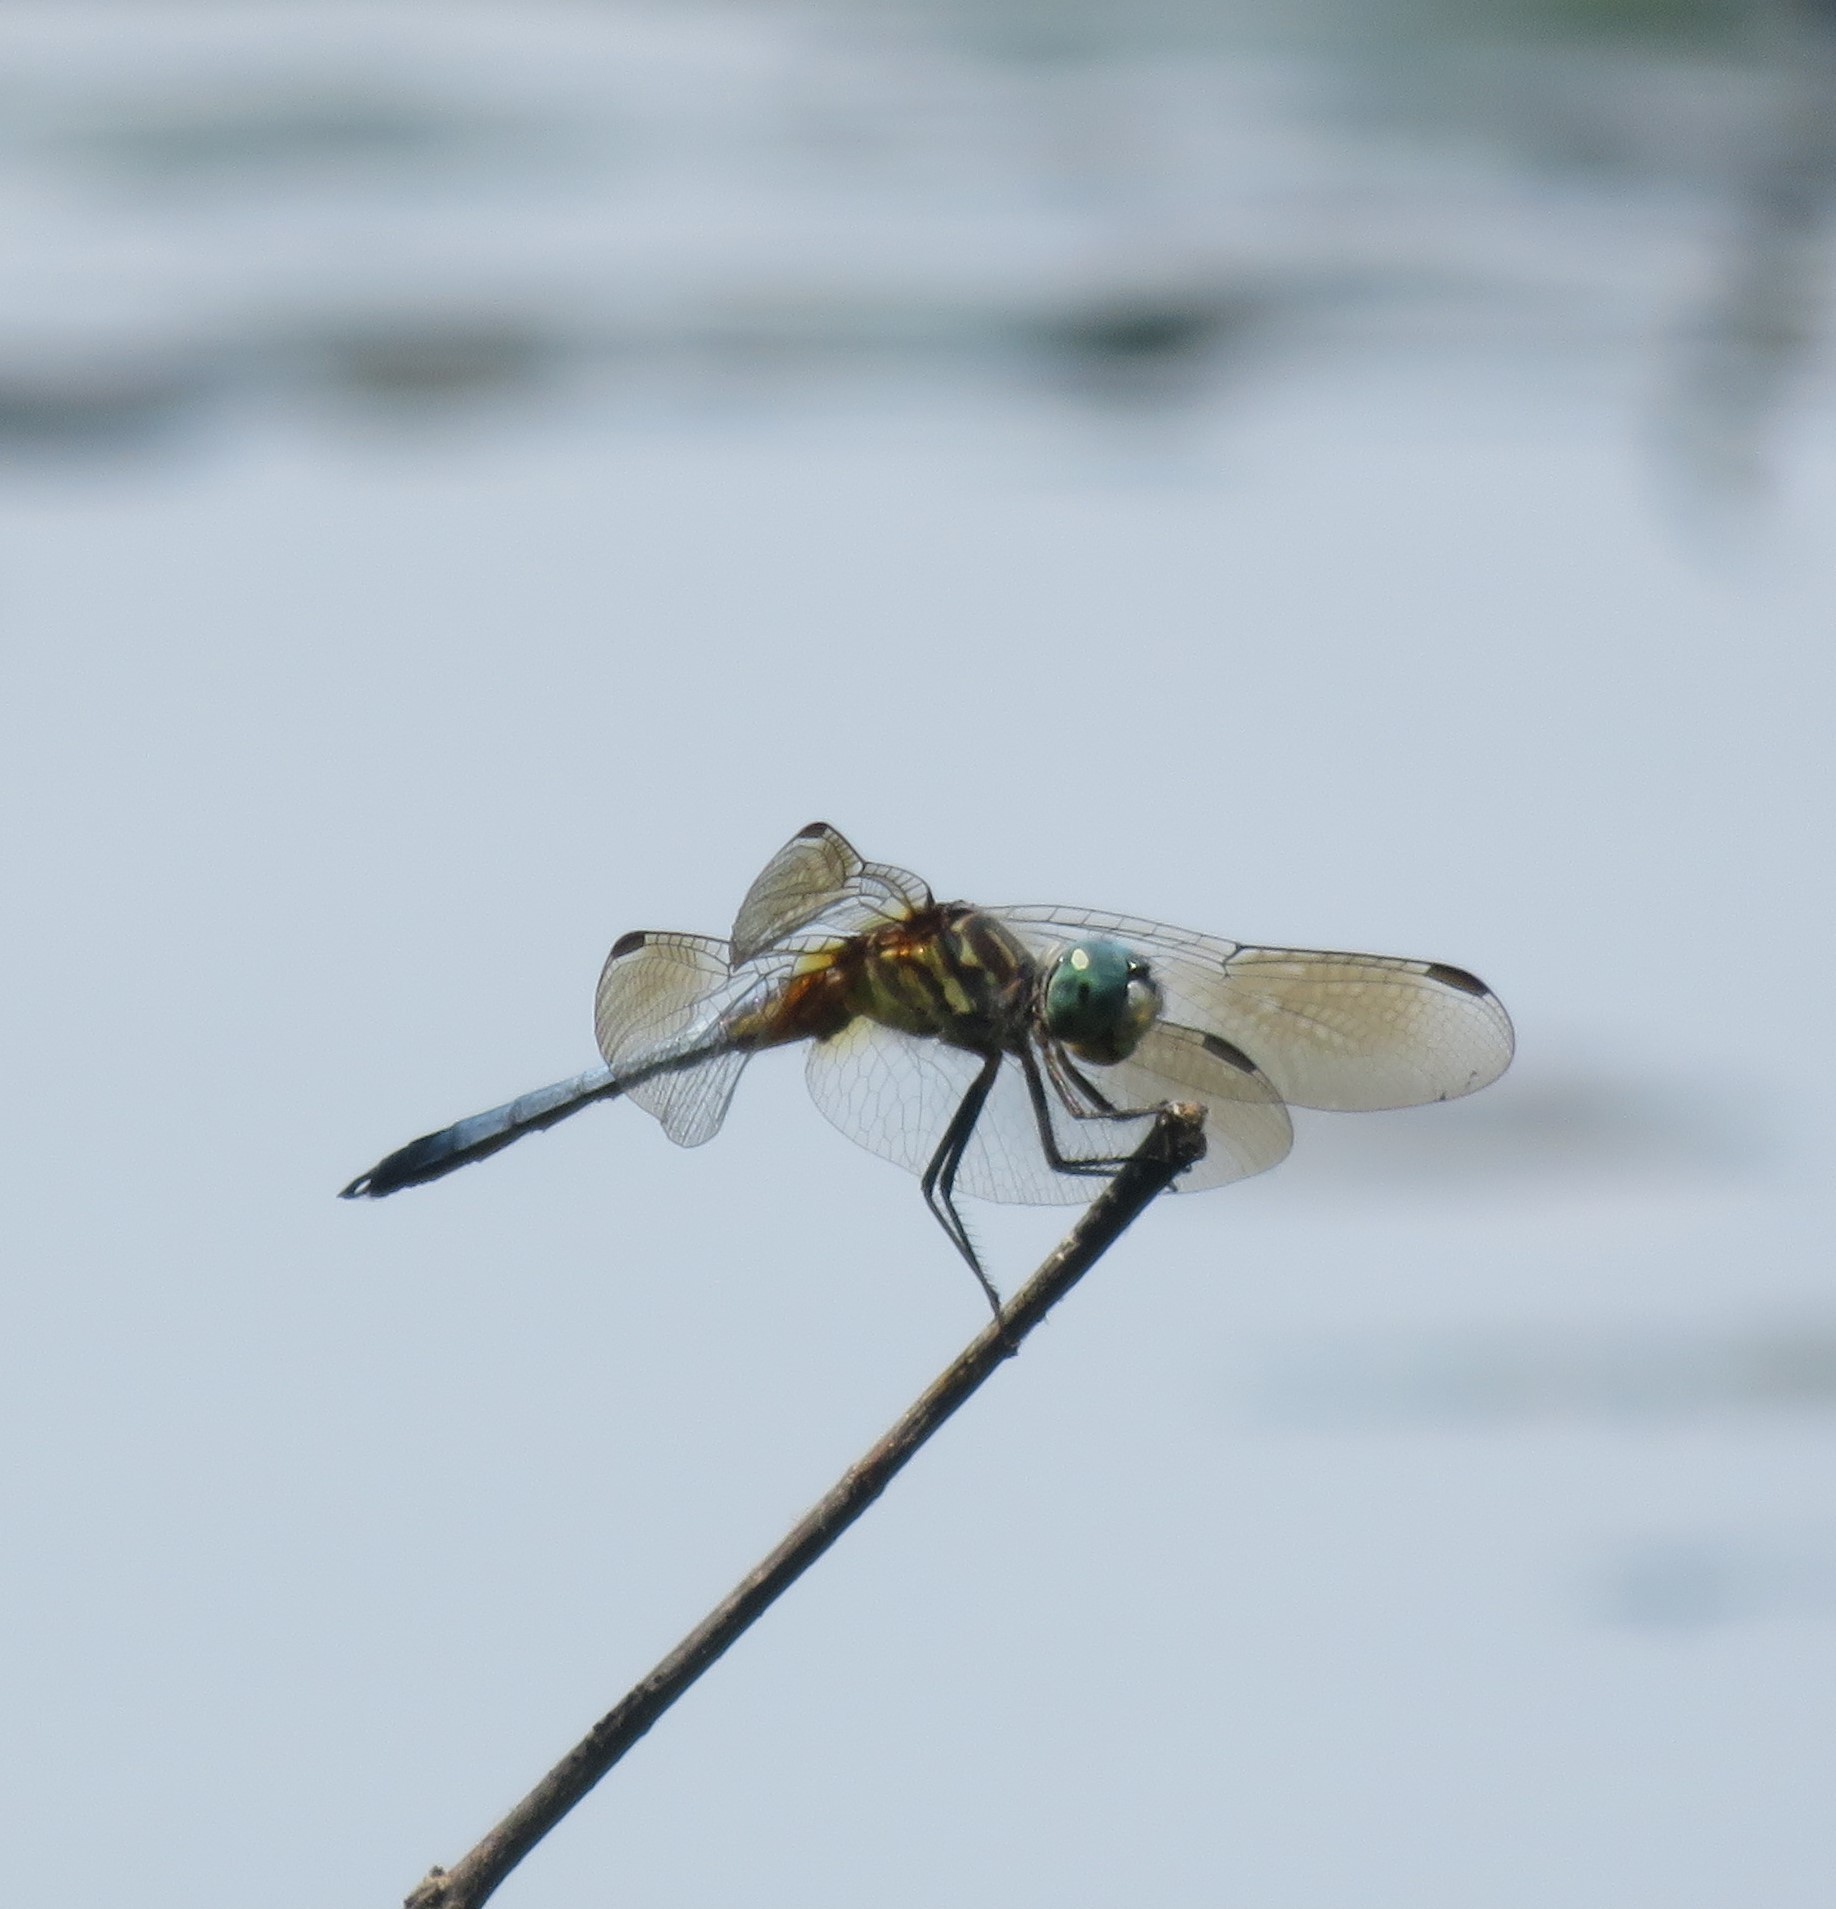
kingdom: Animalia
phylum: Arthropoda
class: Insecta
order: Odonata
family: Libellulidae
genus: Pachydiplax
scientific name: Pachydiplax longipennis
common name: Blue dasher
